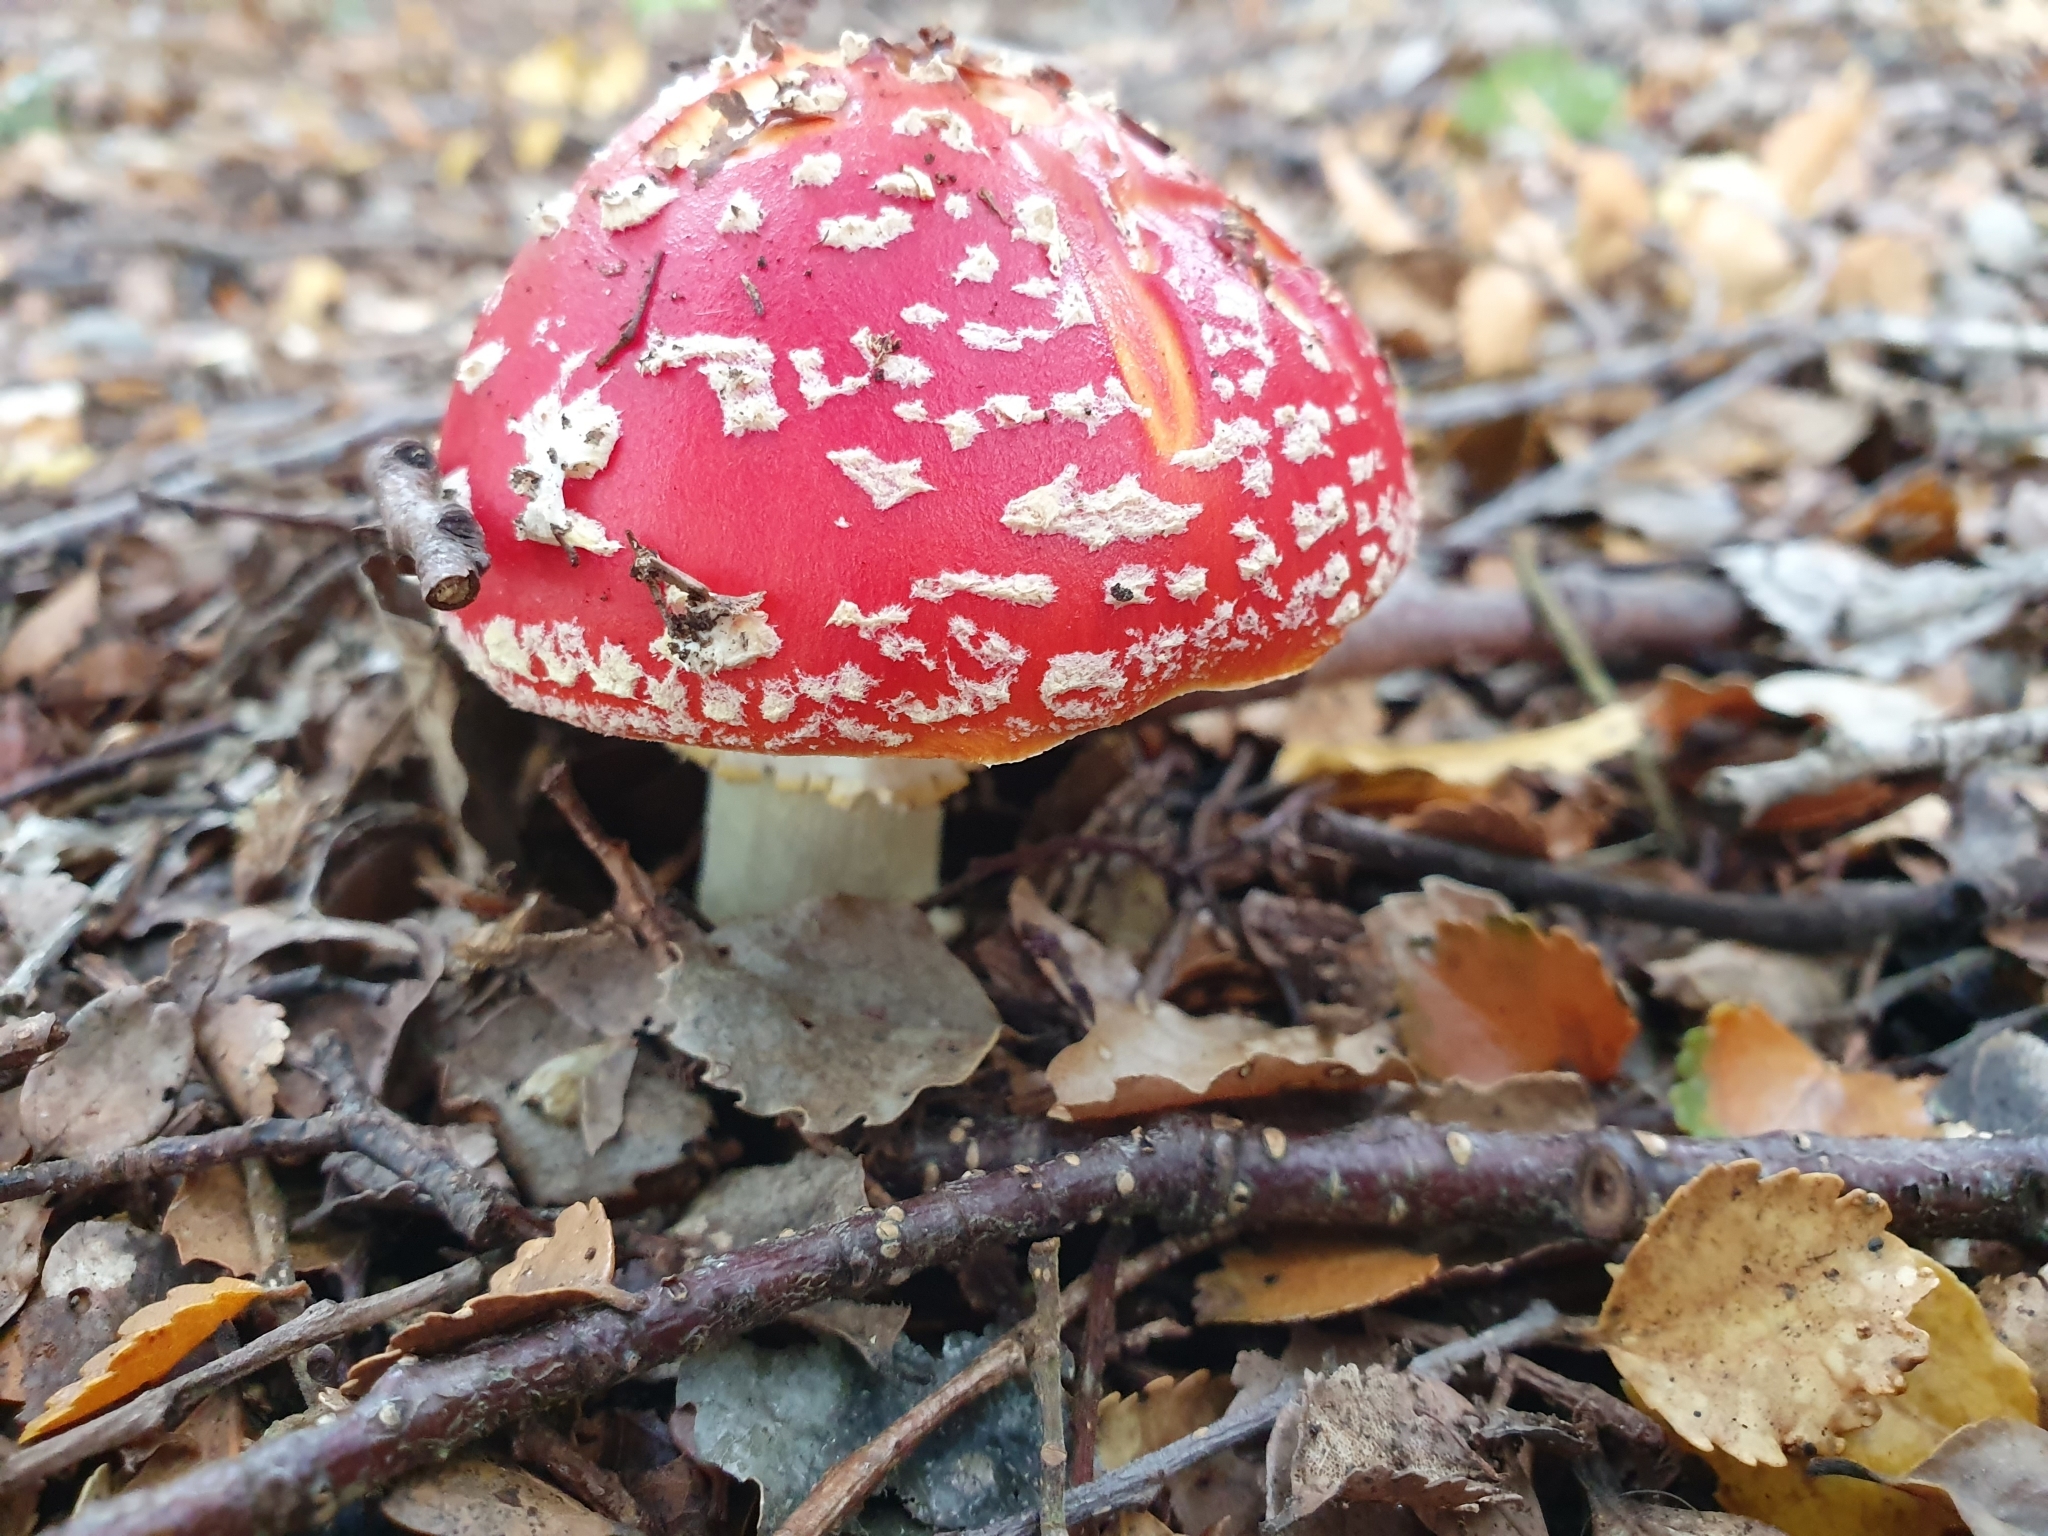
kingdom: Fungi
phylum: Basidiomycota
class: Agaricomycetes
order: Agaricales
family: Amanitaceae
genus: Amanita
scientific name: Amanita muscaria
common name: Fly agaric
